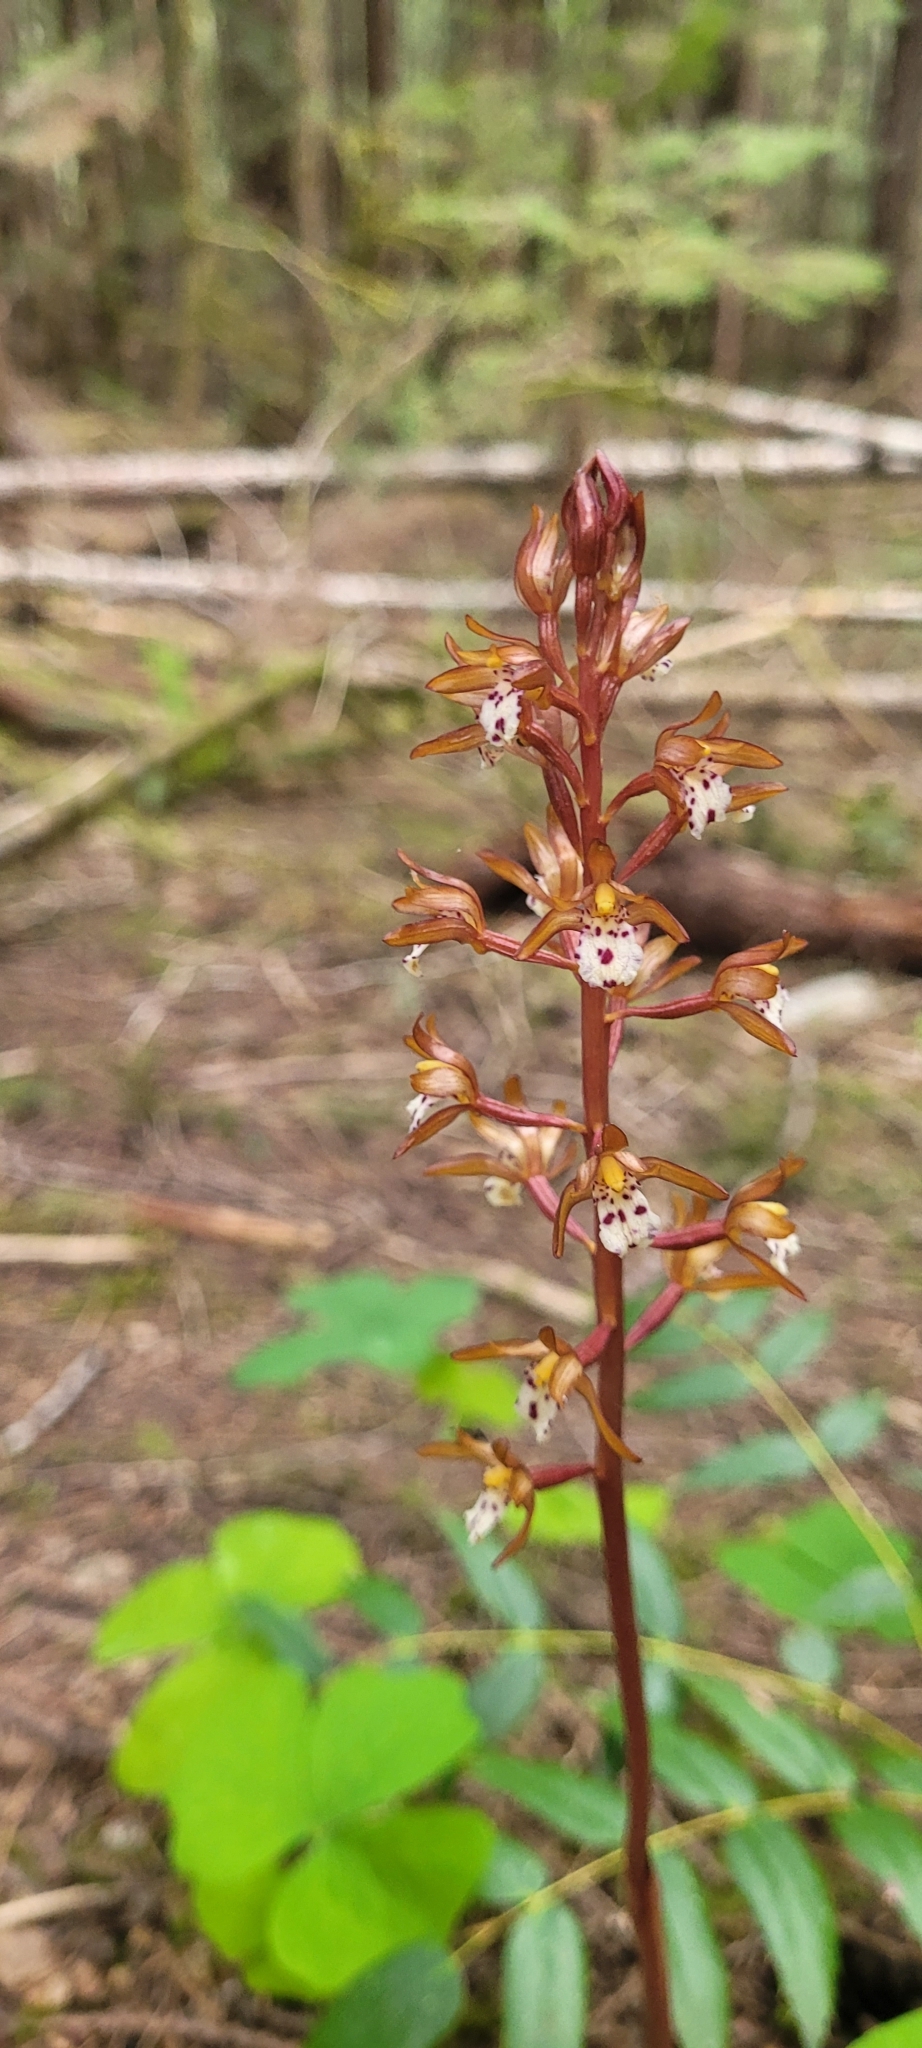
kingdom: Plantae
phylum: Tracheophyta
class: Liliopsida
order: Asparagales
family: Orchidaceae
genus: Corallorhiza
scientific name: Corallorhiza maculata
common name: Spotted coralroot
